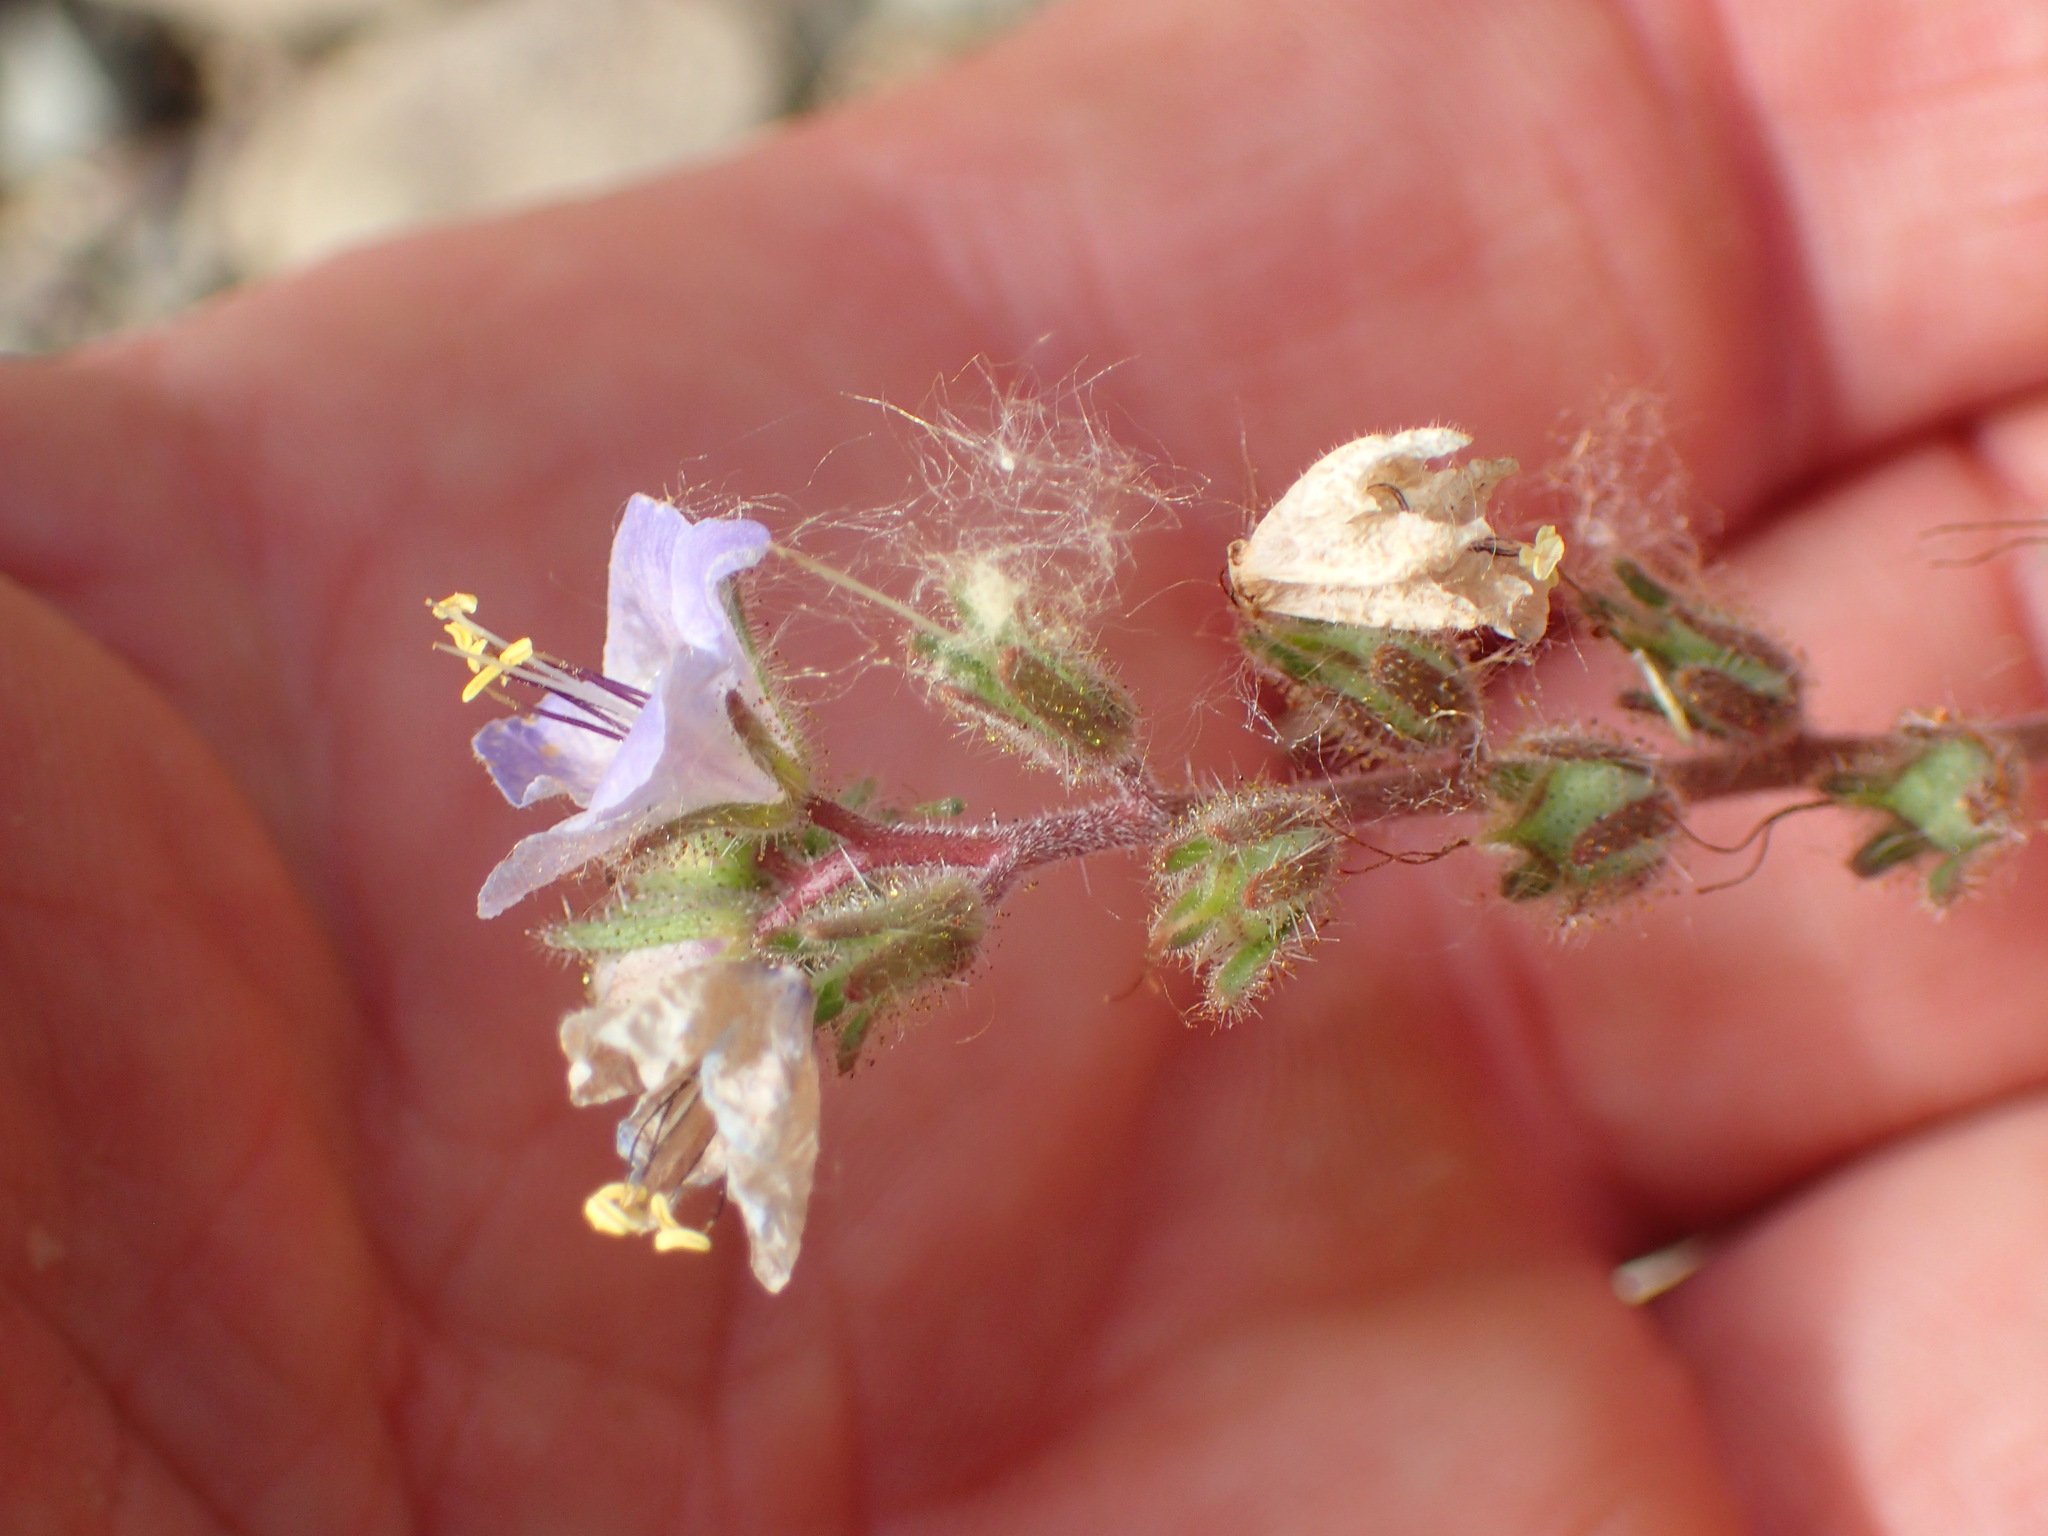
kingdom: Plantae
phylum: Tracheophyta
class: Magnoliopsida
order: Boraginales
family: Hydrophyllaceae
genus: Phacelia
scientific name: Phacelia longipes
